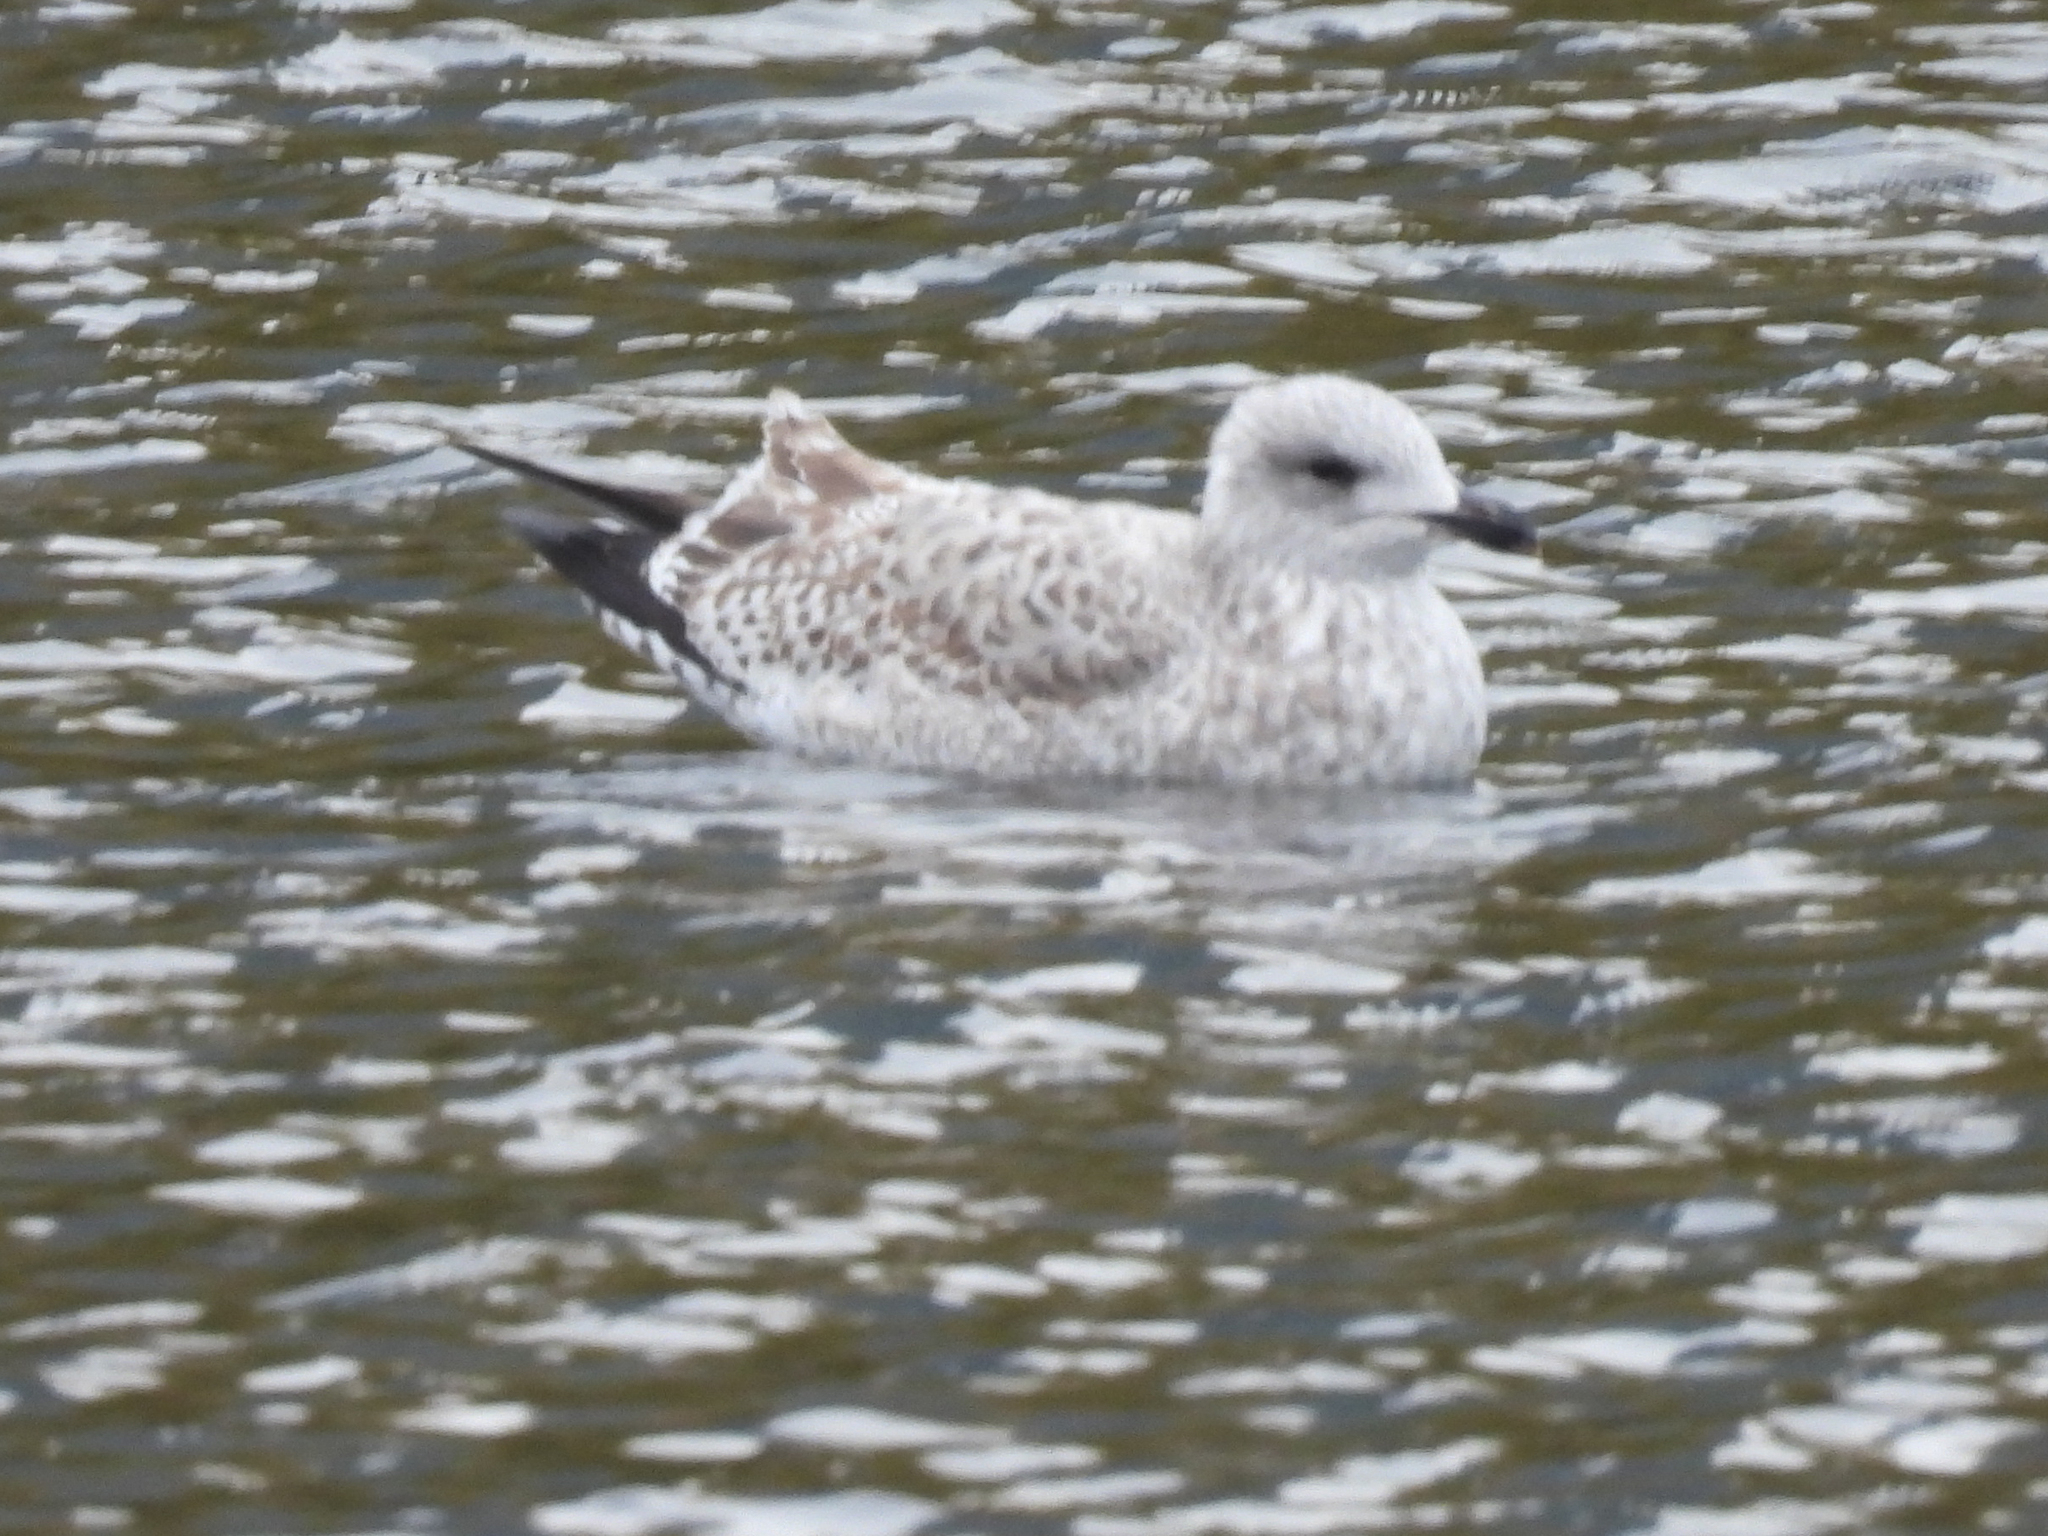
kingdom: Animalia
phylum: Chordata
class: Aves
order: Charadriiformes
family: Laridae
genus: Larus
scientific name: Larus argentatus
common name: Herring gull
